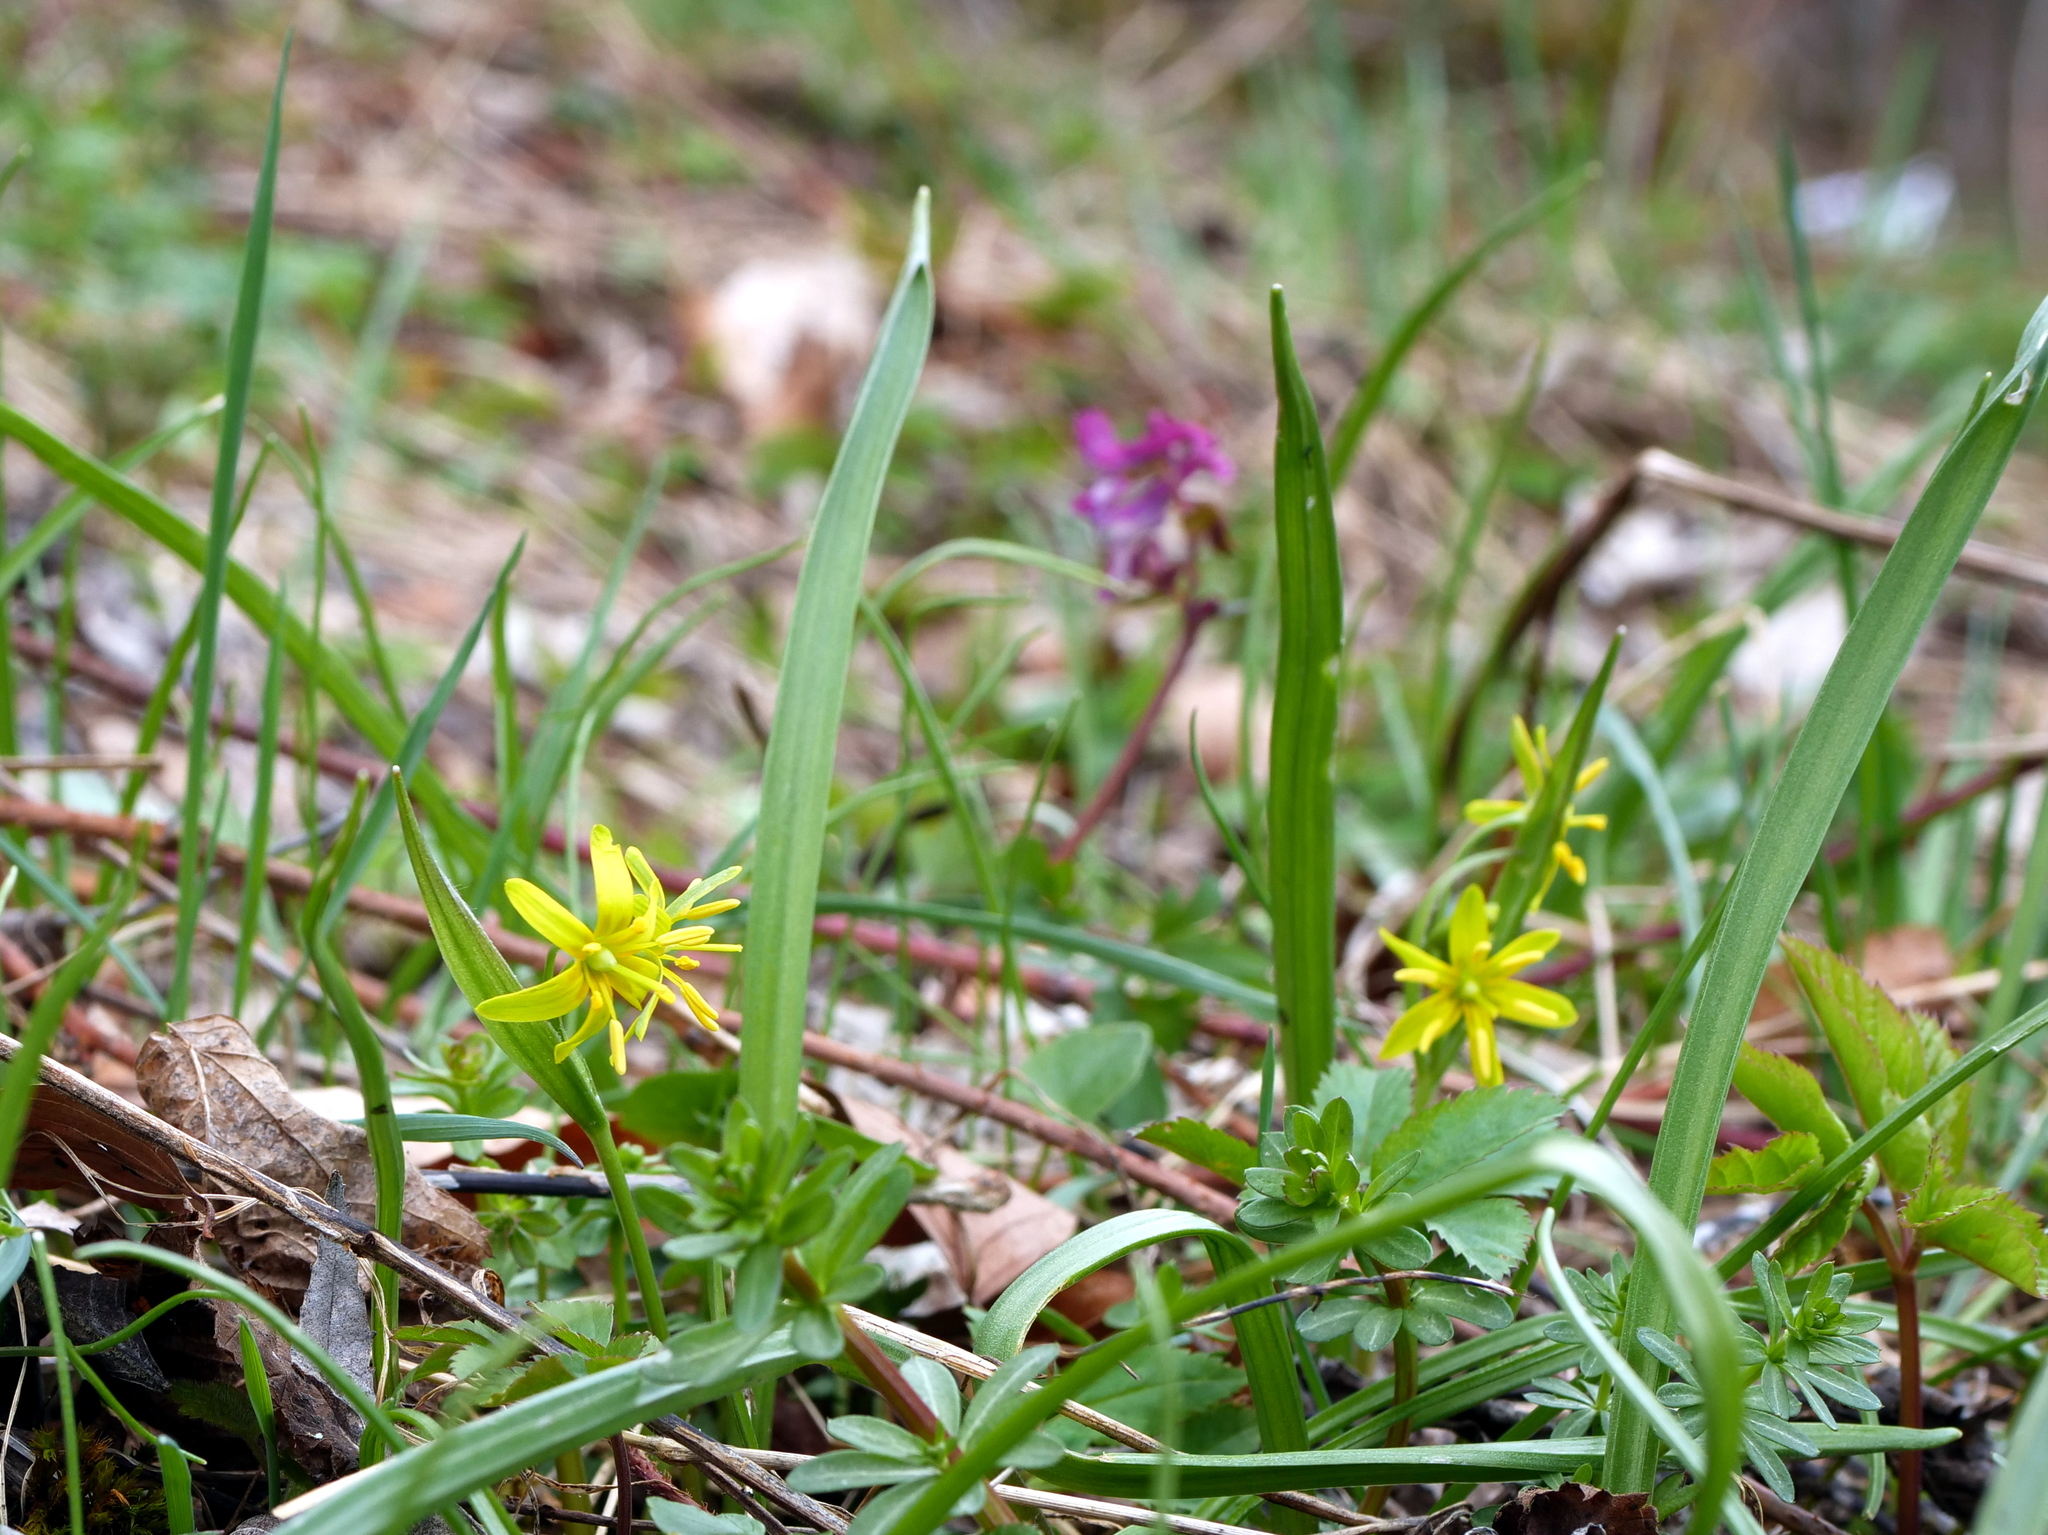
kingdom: Plantae
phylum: Tracheophyta
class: Liliopsida
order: Liliales
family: Liliaceae
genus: Gagea
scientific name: Gagea lutea
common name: Yellow star-of-bethlehem
